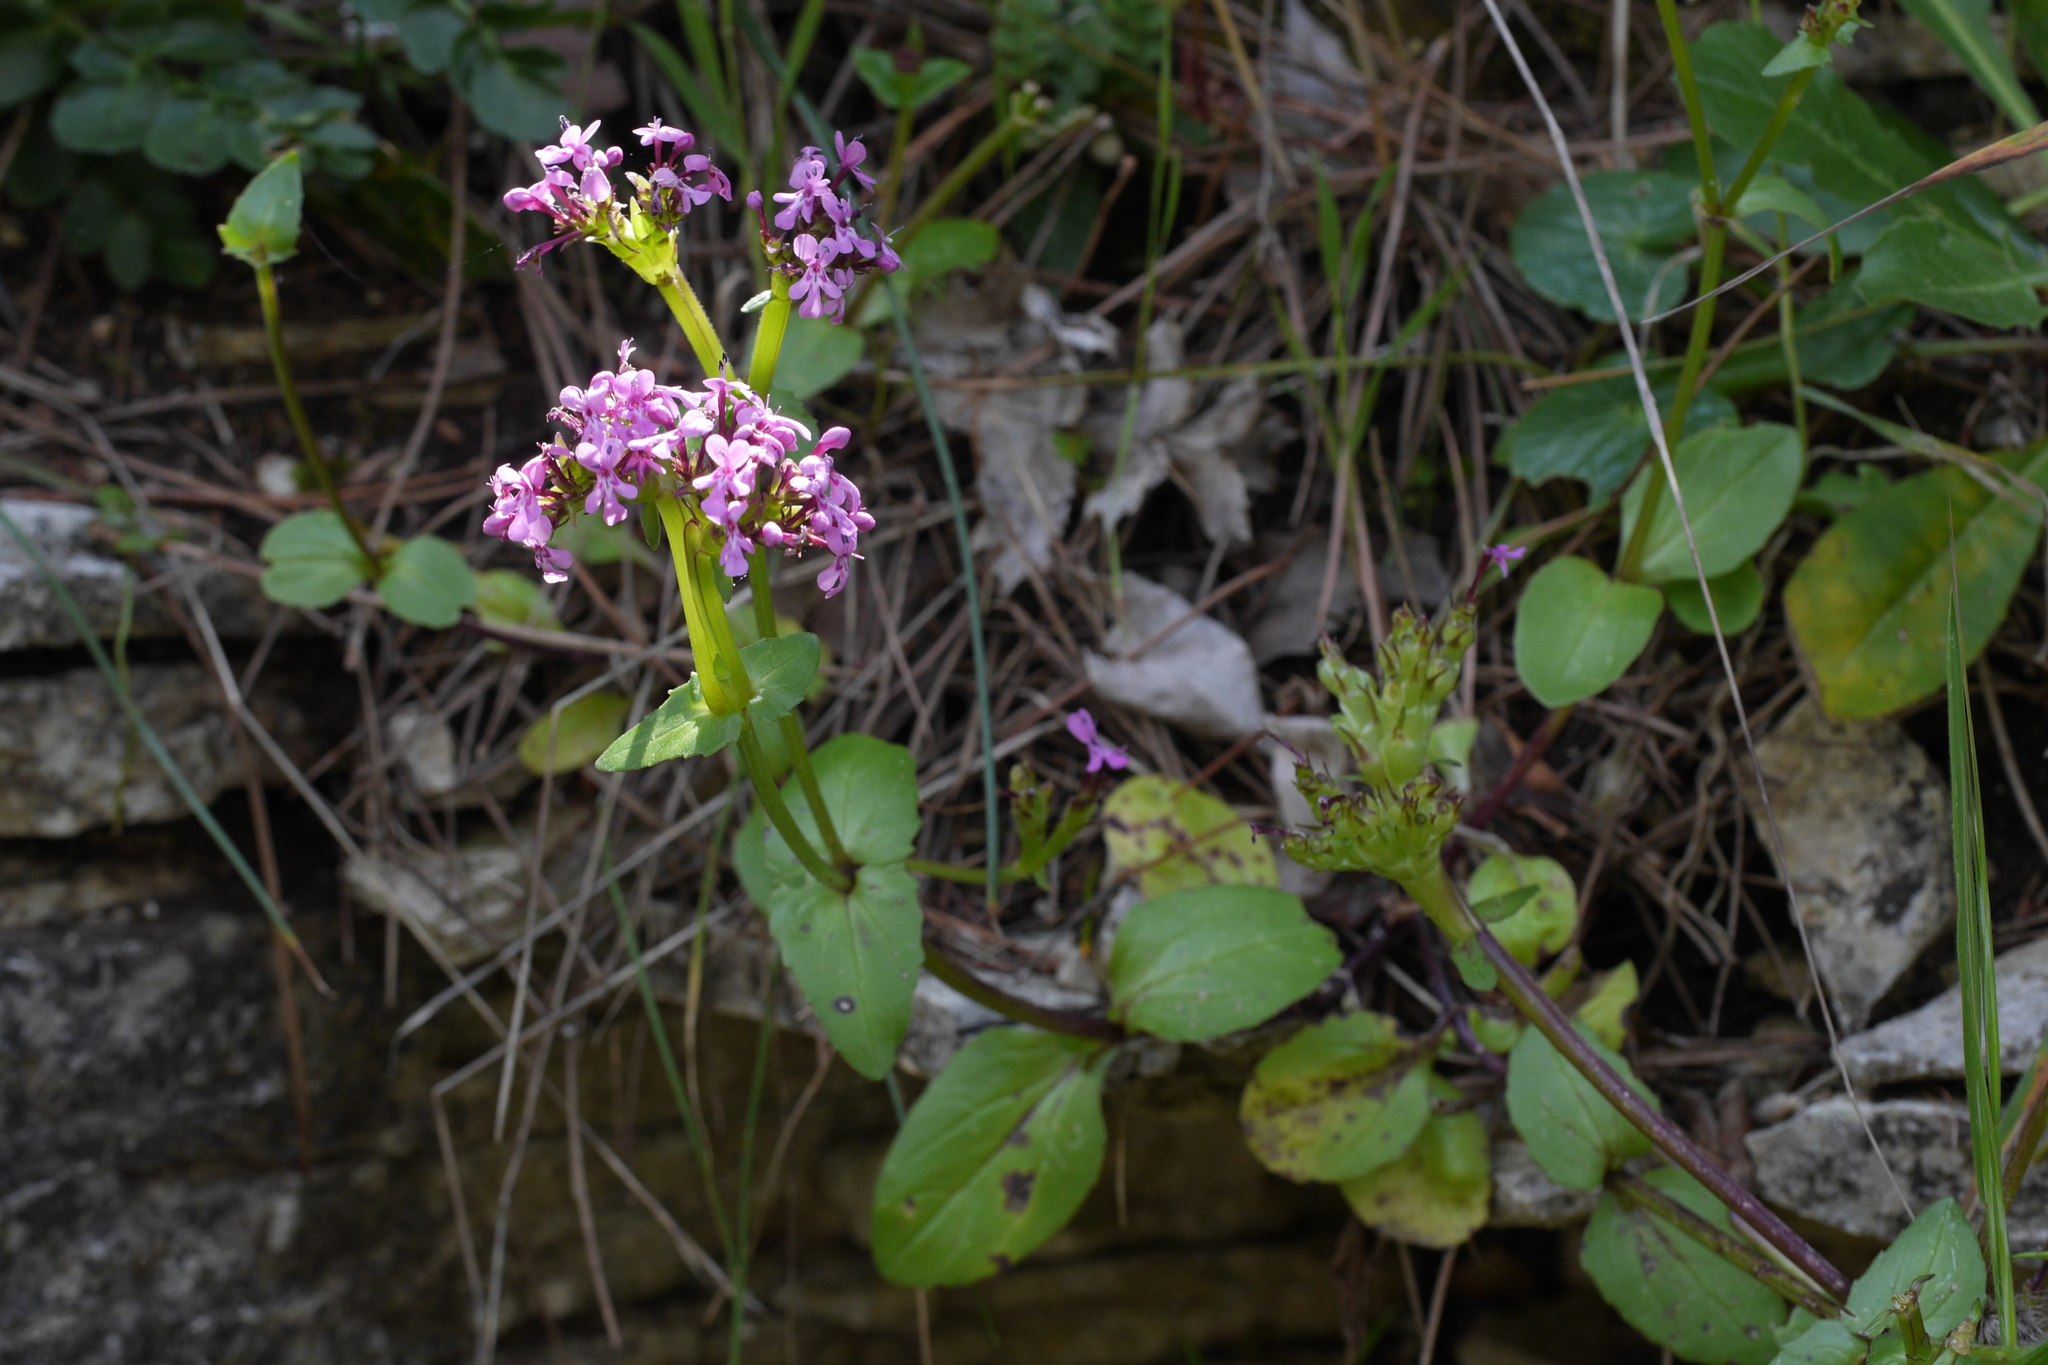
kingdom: Plantae
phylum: Tracheophyta
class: Magnoliopsida
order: Dipsacales
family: Caprifoliaceae
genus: Fedia
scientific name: Fedia graciliflora
